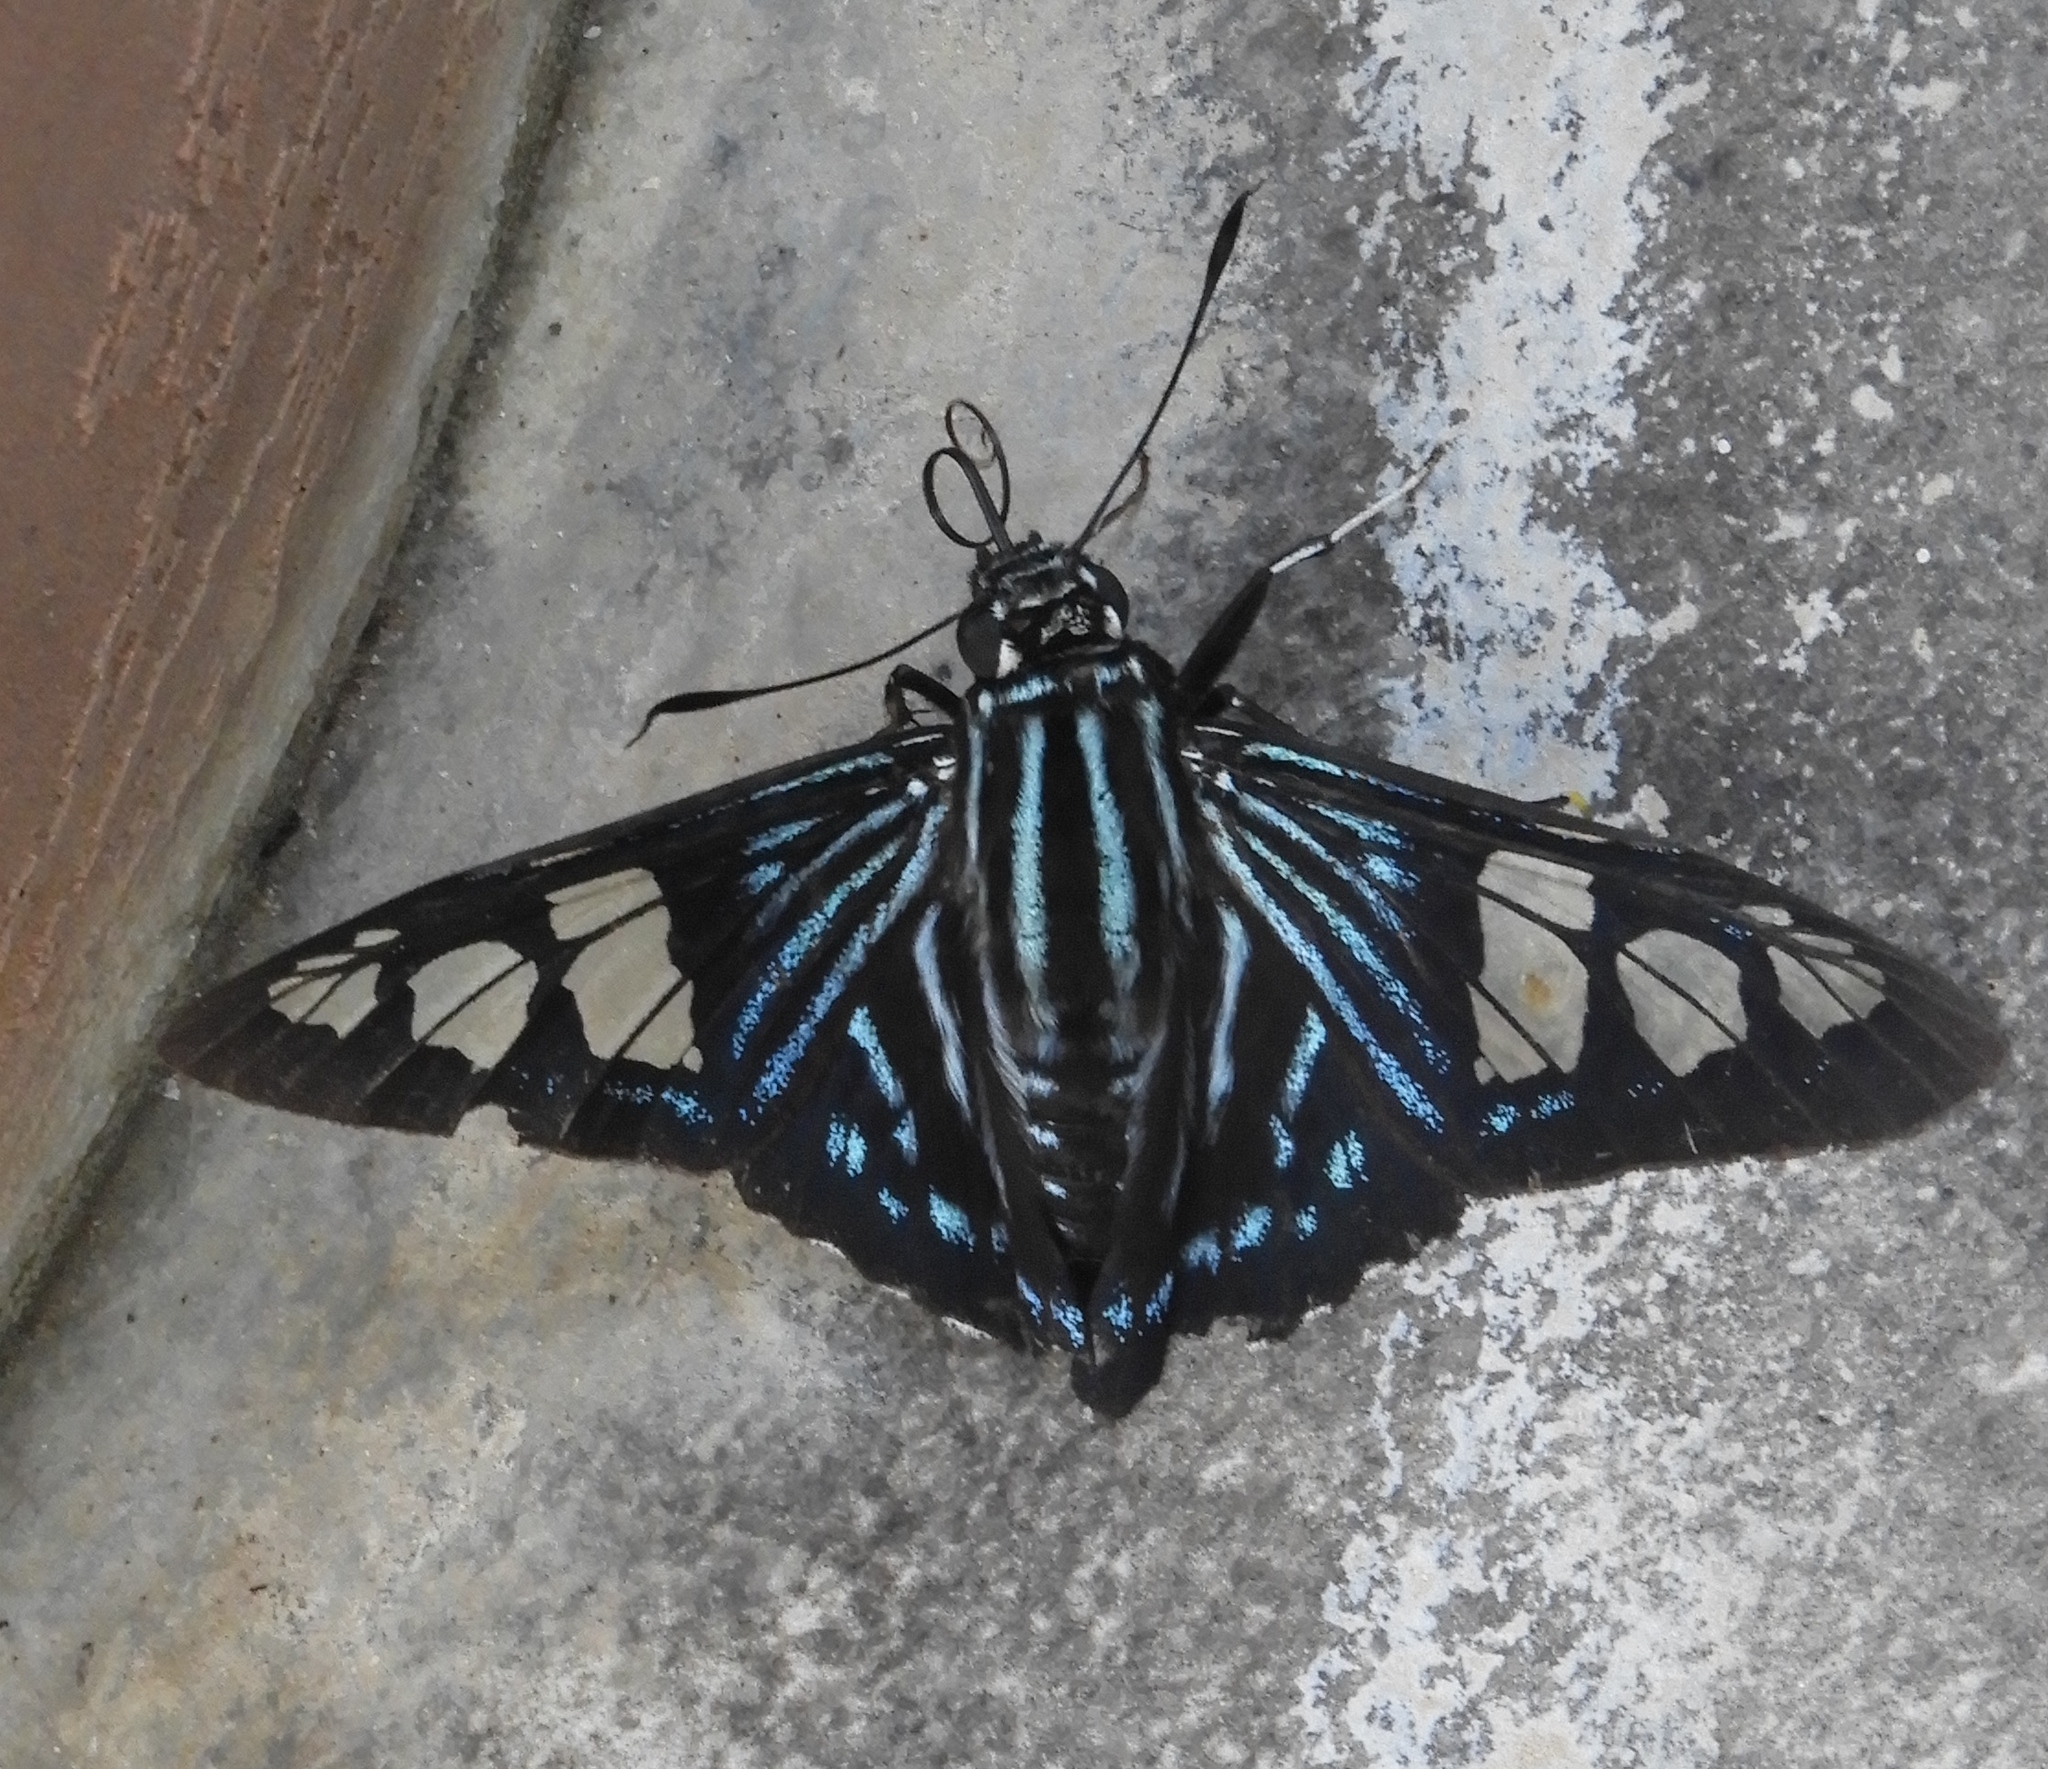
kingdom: Animalia
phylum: Arthropoda
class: Insecta
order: Lepidoptera
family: Hesperiidae
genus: Phocides
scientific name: Phocides pigmalion
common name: Mangrove skipper
